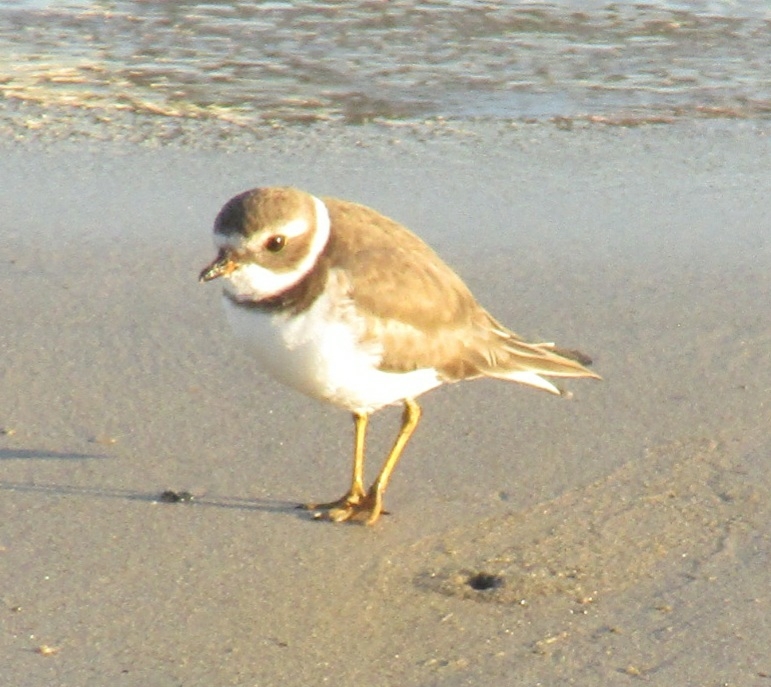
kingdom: Animalia
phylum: Chordata
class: Aves
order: Charadriiformes
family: Charadriidae
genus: Charadrius
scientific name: Charadrius semipalmatus
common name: Semipalmated plover
